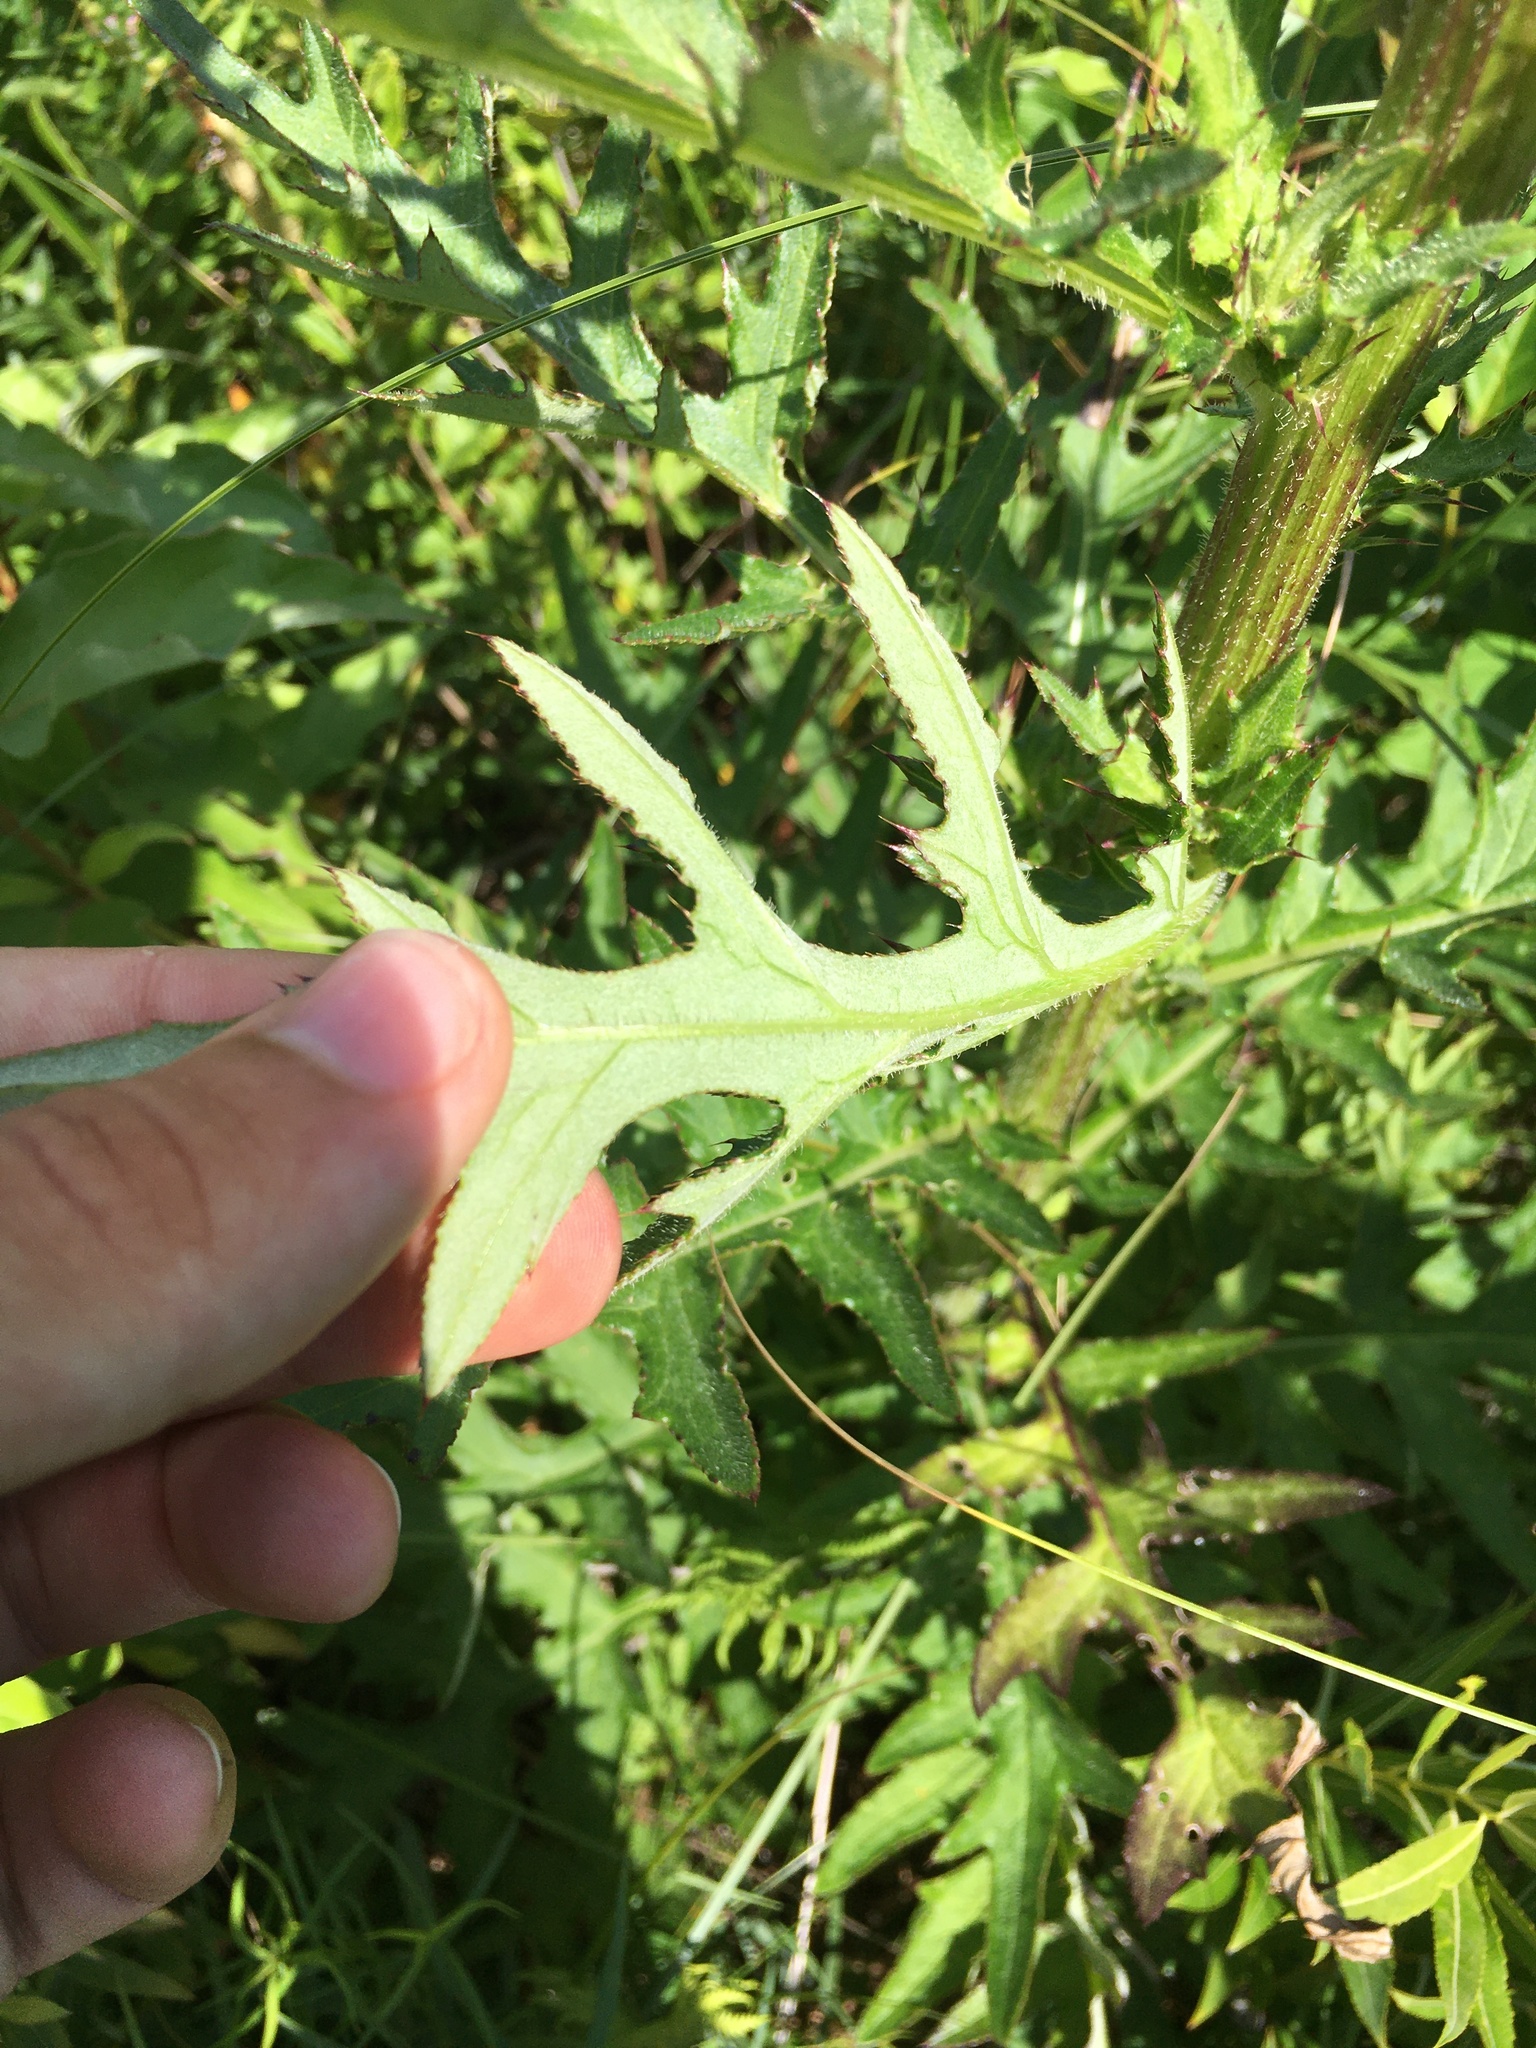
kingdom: Plantae
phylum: Tracheophyta
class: Magnoliopsida
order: Asterales
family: Asteraceae
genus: Cirsium
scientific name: Cirsium muticum
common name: Dunce-nettle
